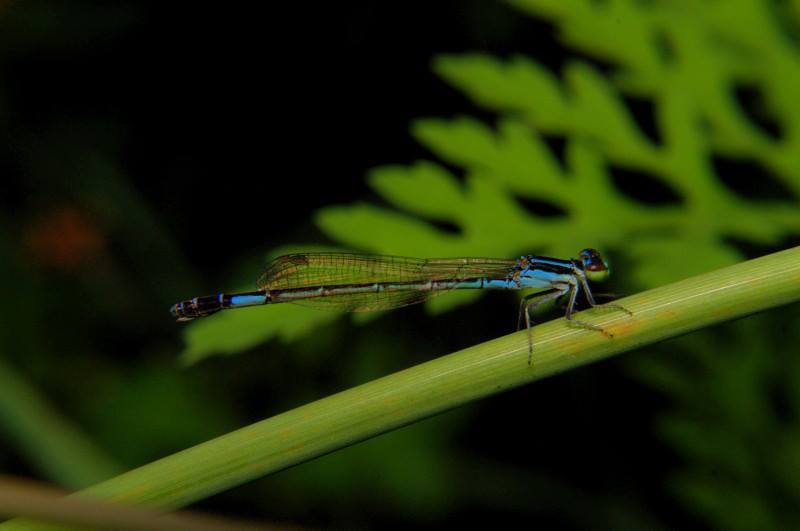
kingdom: Animalia
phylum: Arthropoda
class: Insecta
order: Odonata
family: Coenagrionidae
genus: Agriocnemis
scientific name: Agriocnemis clauseni
